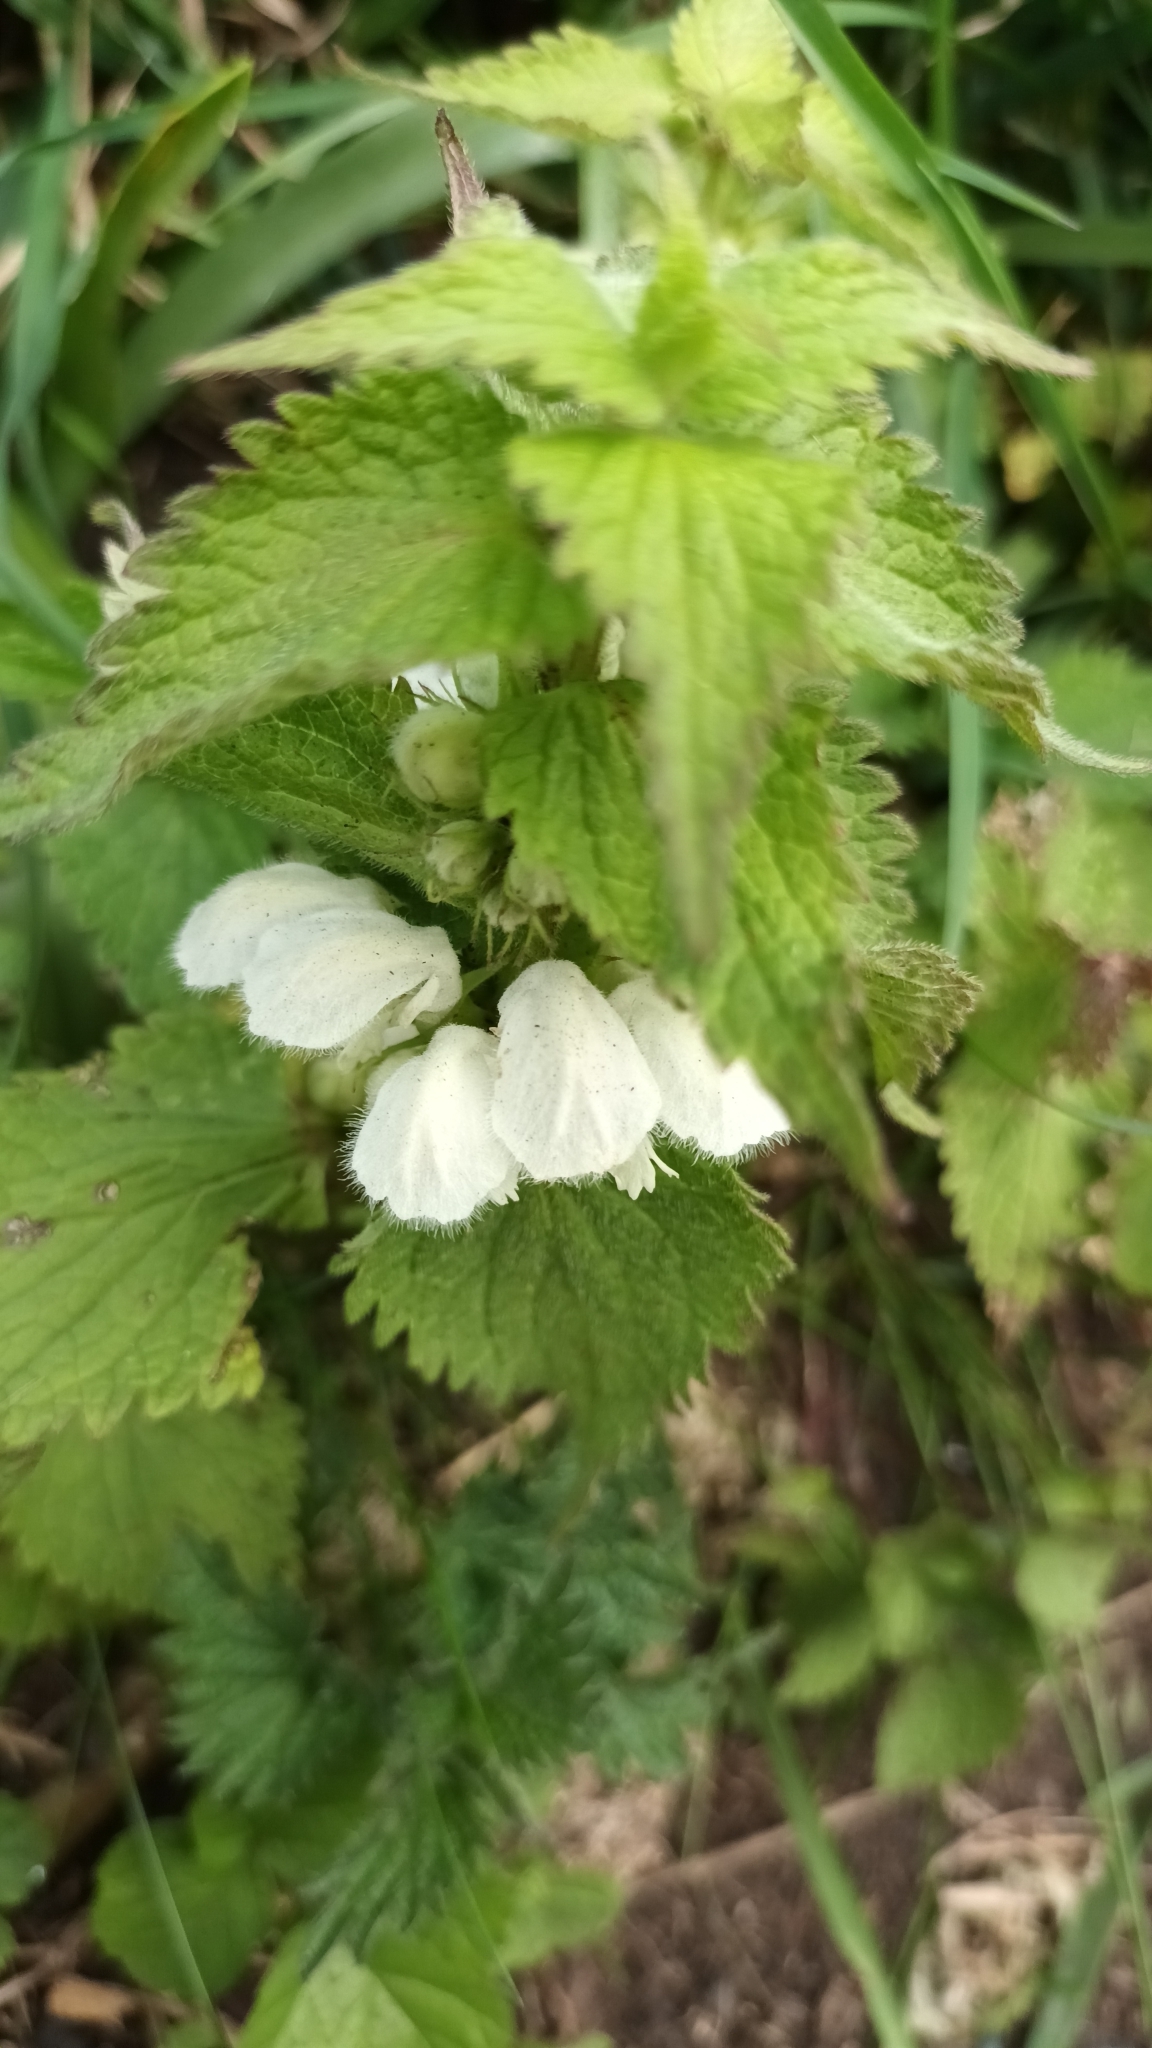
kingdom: Plantae
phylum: Tracheophyta
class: Magnoliopsida
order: Lamiales
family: Lamiaceae
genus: Lamium
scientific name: Lamium album
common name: White dead-nettle
